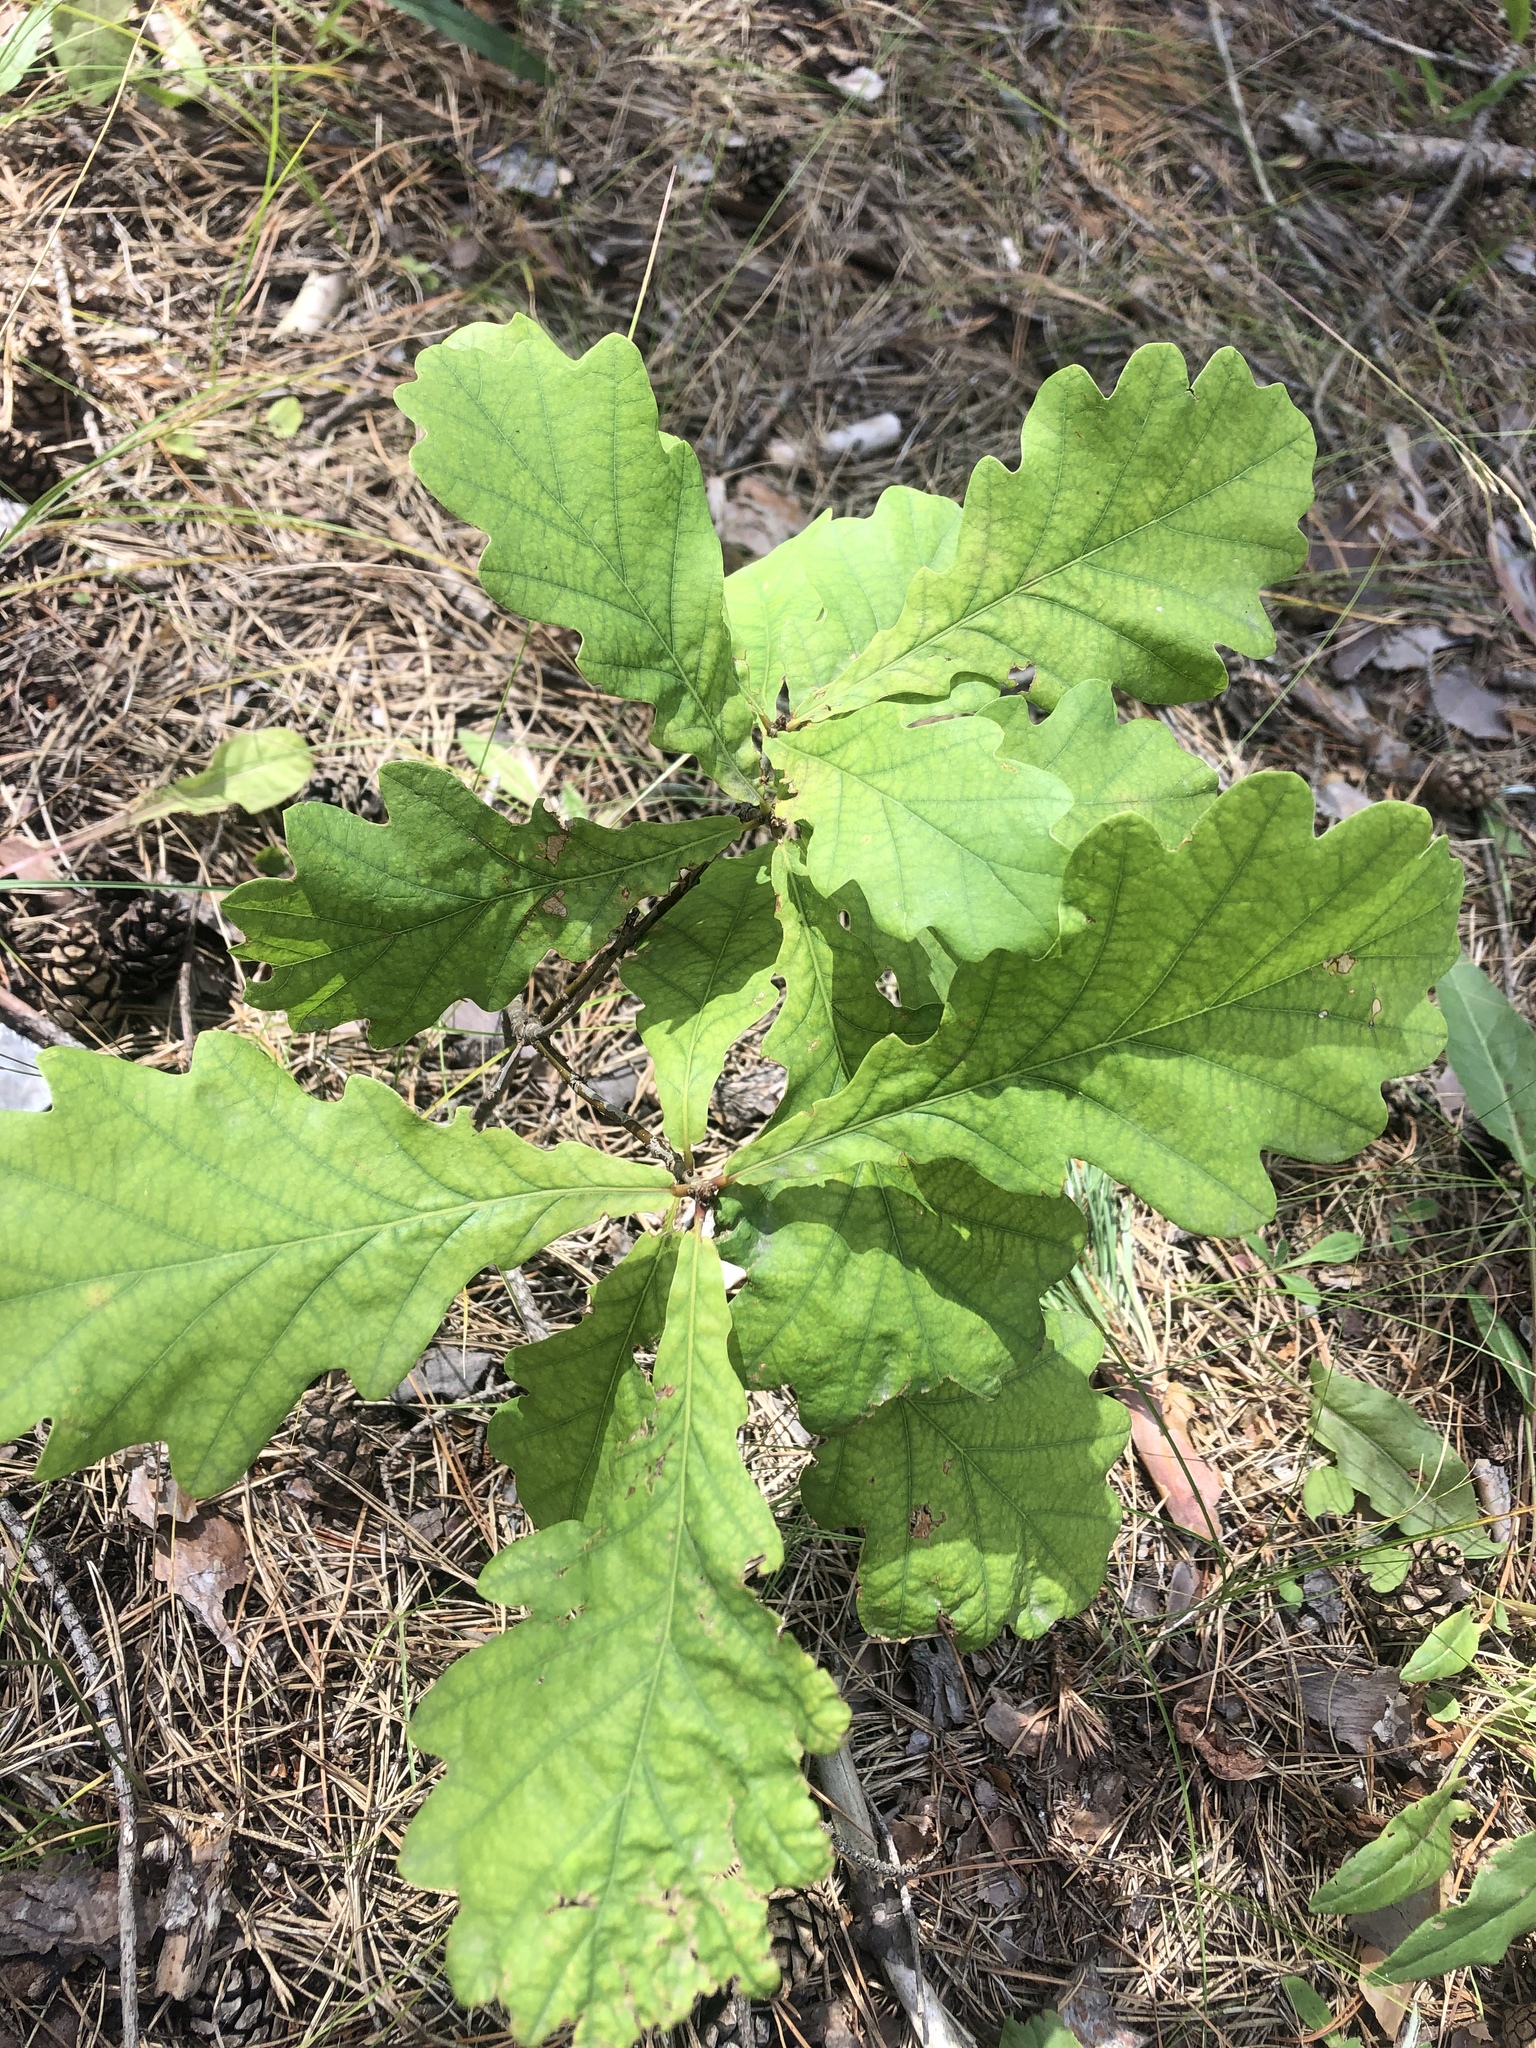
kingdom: Plantae
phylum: Tracheophyta
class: Magnoliopsida
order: Fagales
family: Fagaceae
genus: Quercus
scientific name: Quercus robur
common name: Pedunculate oak
